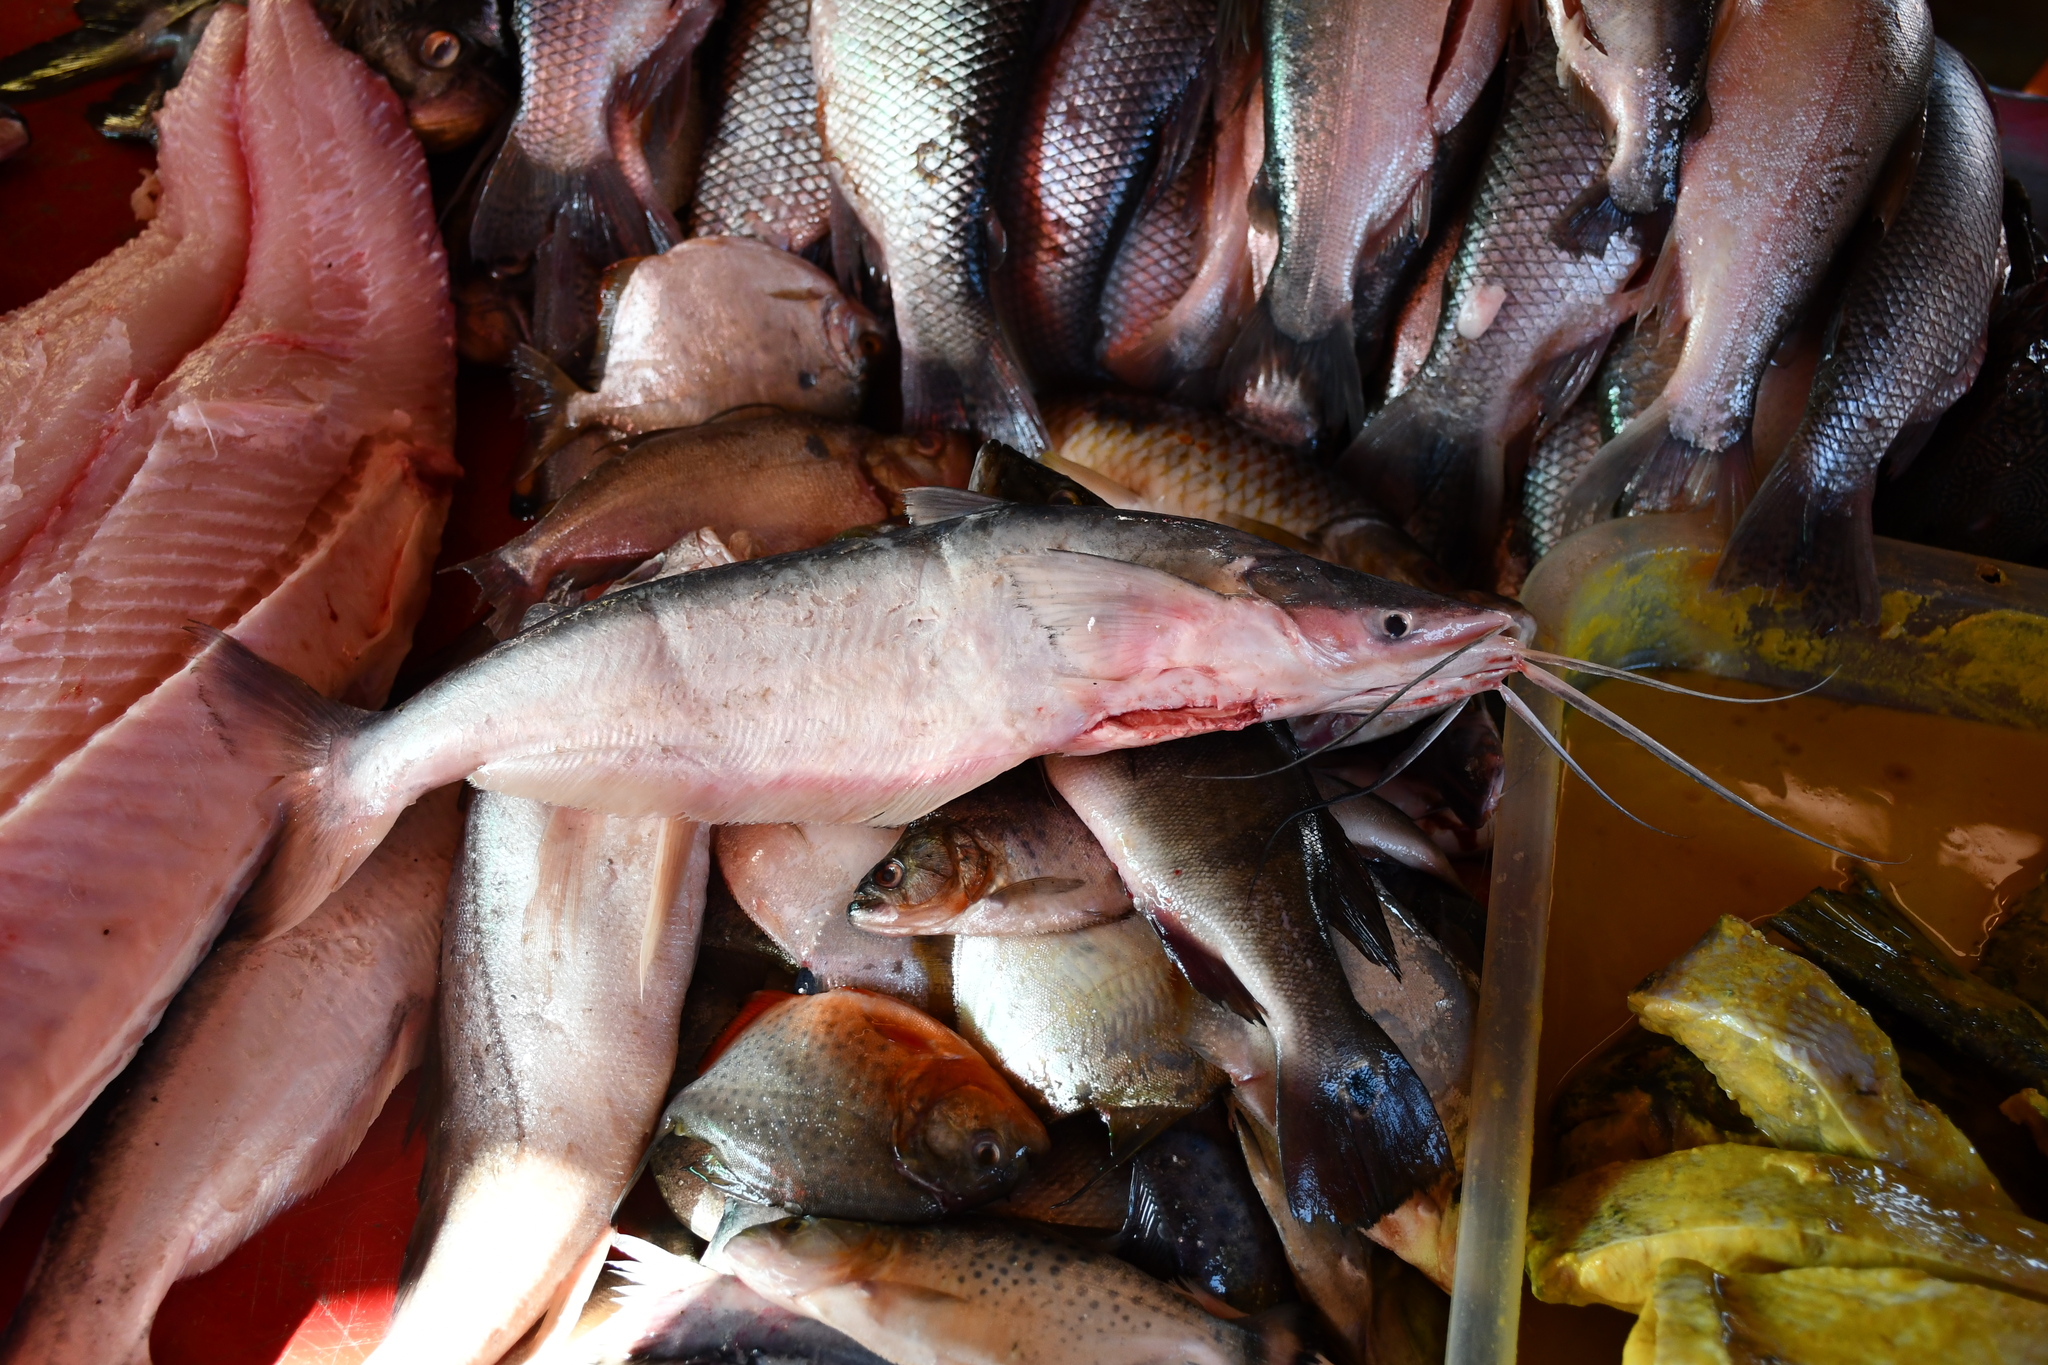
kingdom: Animalia
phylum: Chordata
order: Siluriformes
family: Pimelodidae
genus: Hypophthalmus
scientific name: Hypophthalmus marginatus
